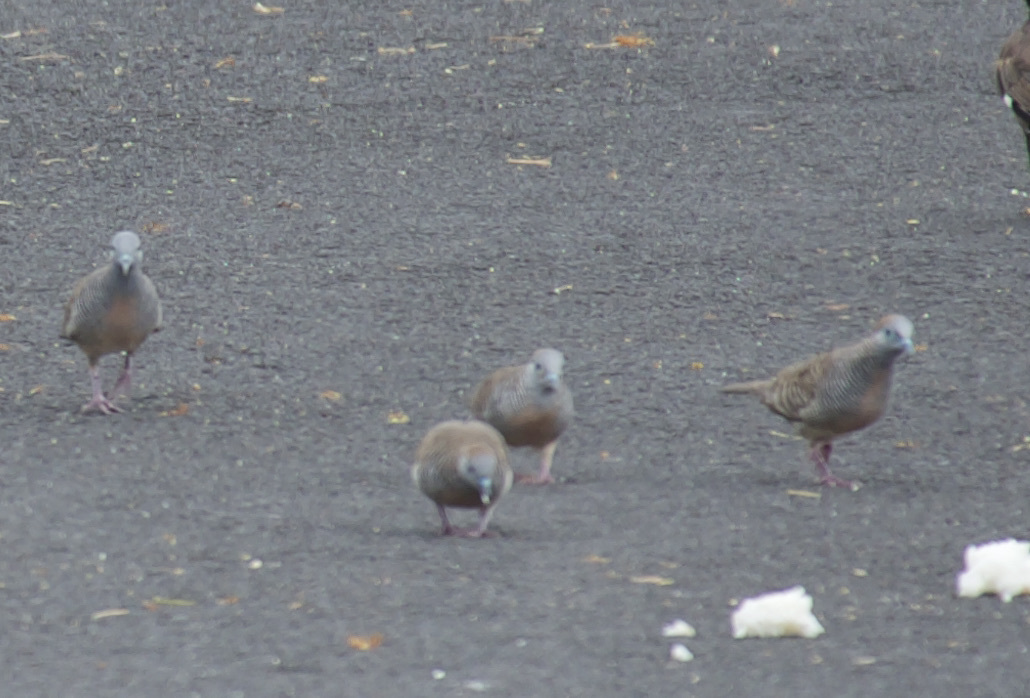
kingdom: Animalia
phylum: Chordata
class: Aves
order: Columbiformes
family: Columbidae
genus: Geopelia
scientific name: Geopelia striata
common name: Zebra dove
